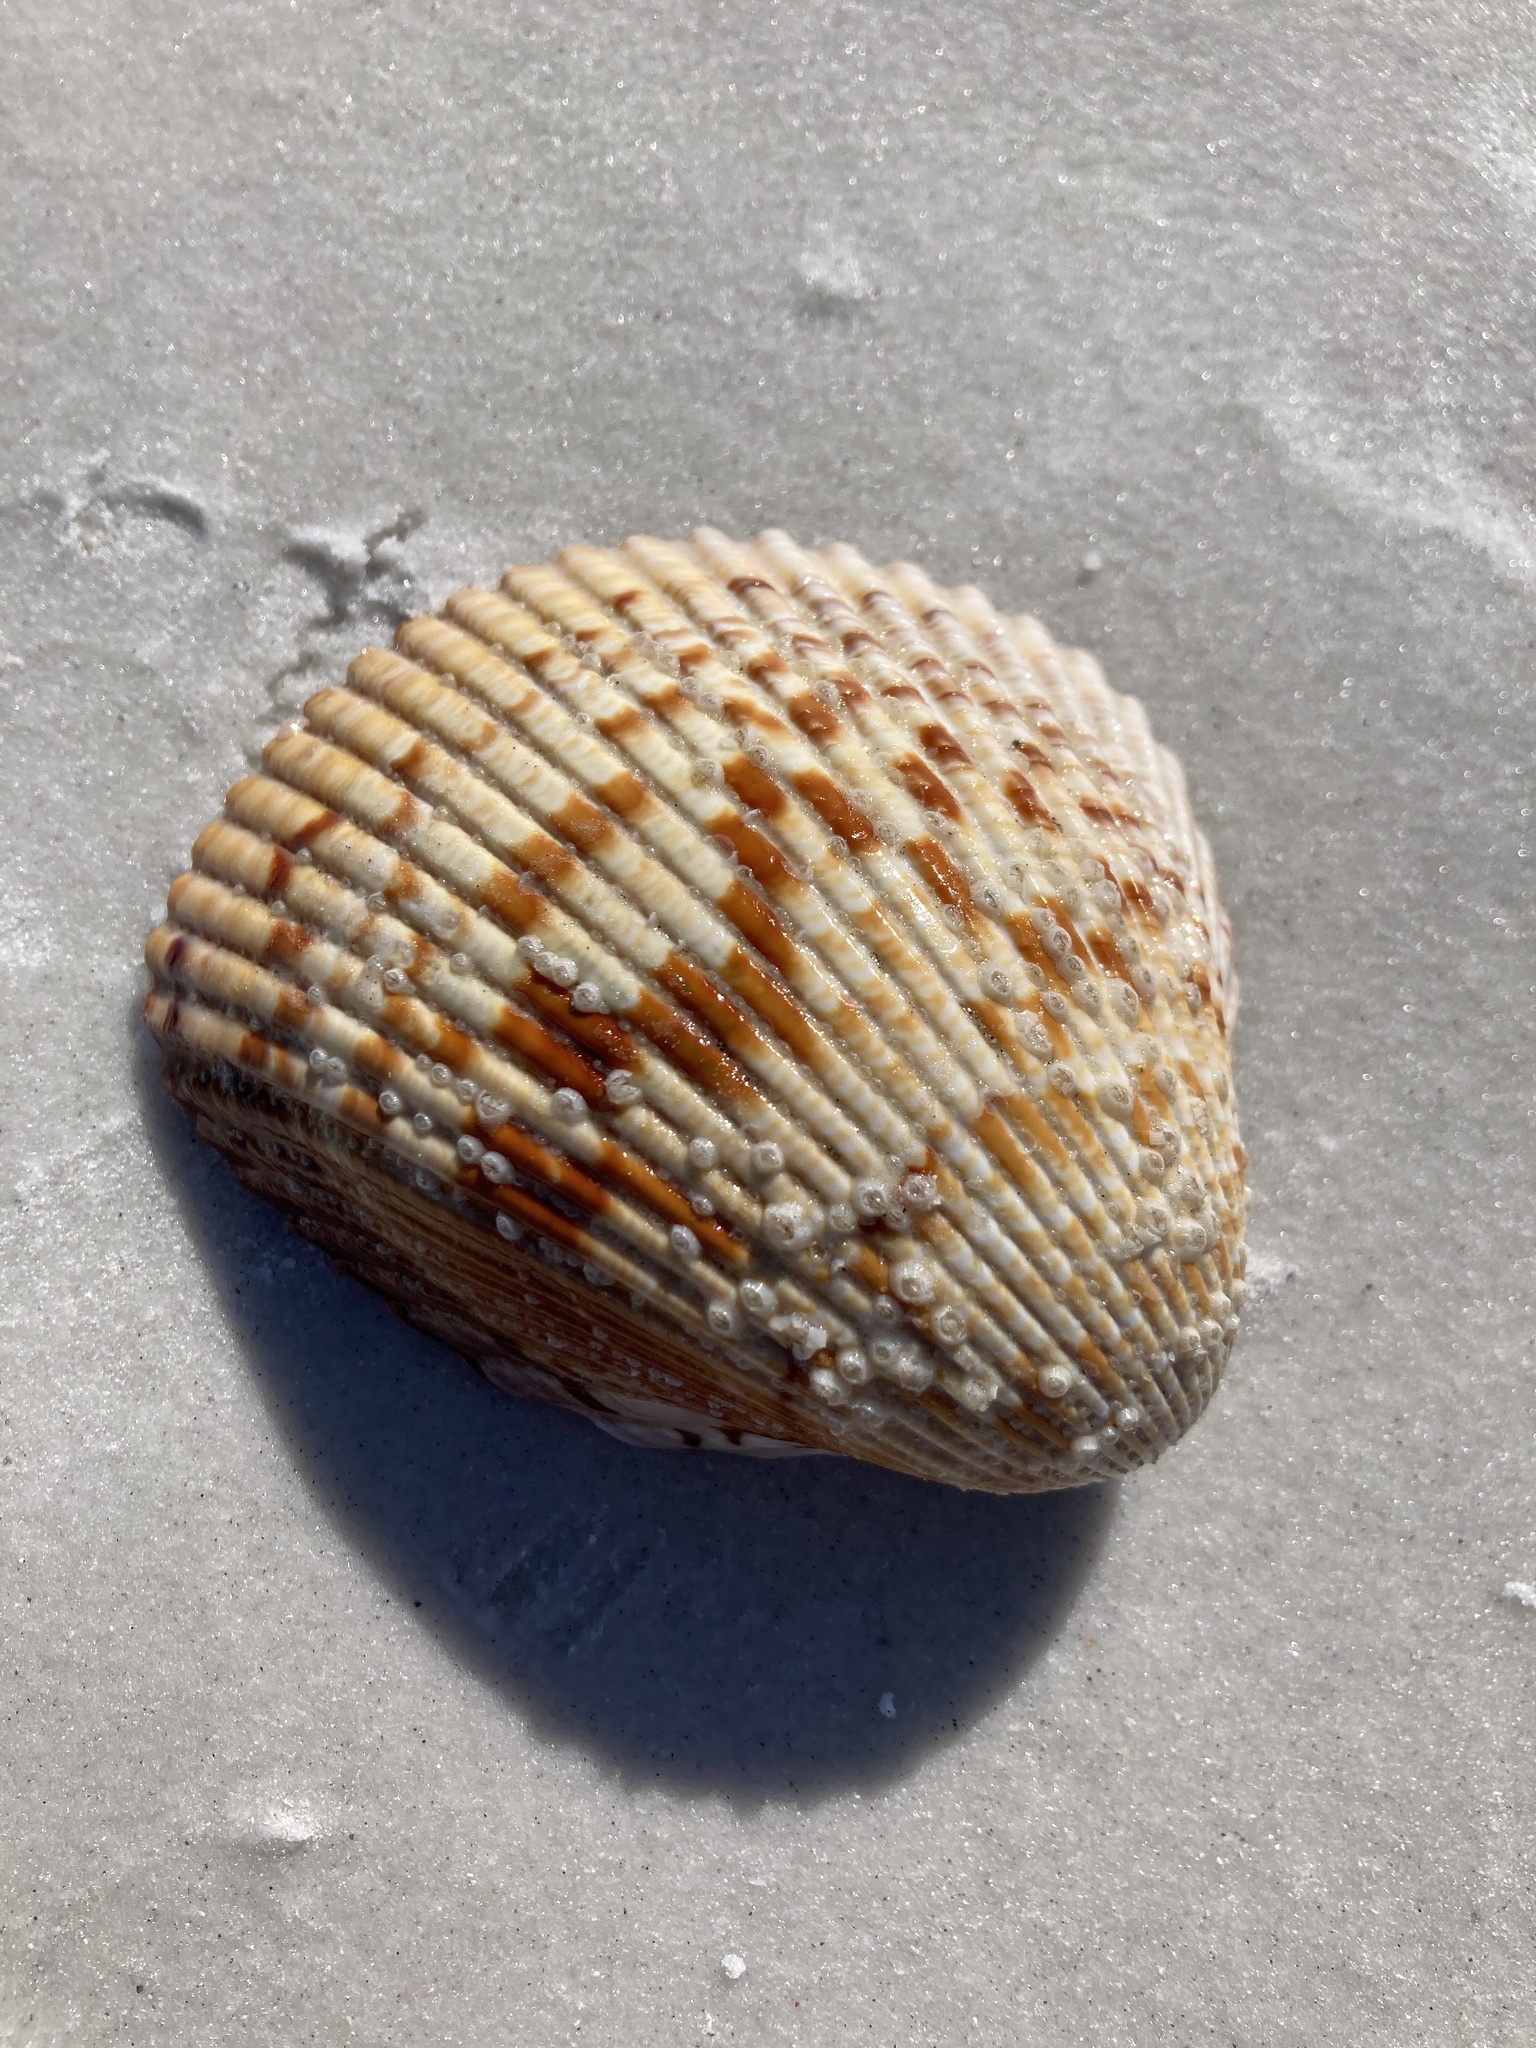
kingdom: Animalia
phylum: Mollusca
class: Bivalvia
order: Cardiida
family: Cardiidae
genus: Dinocardium
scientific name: Dinocardium robustum
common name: Atlantic giant cockle
